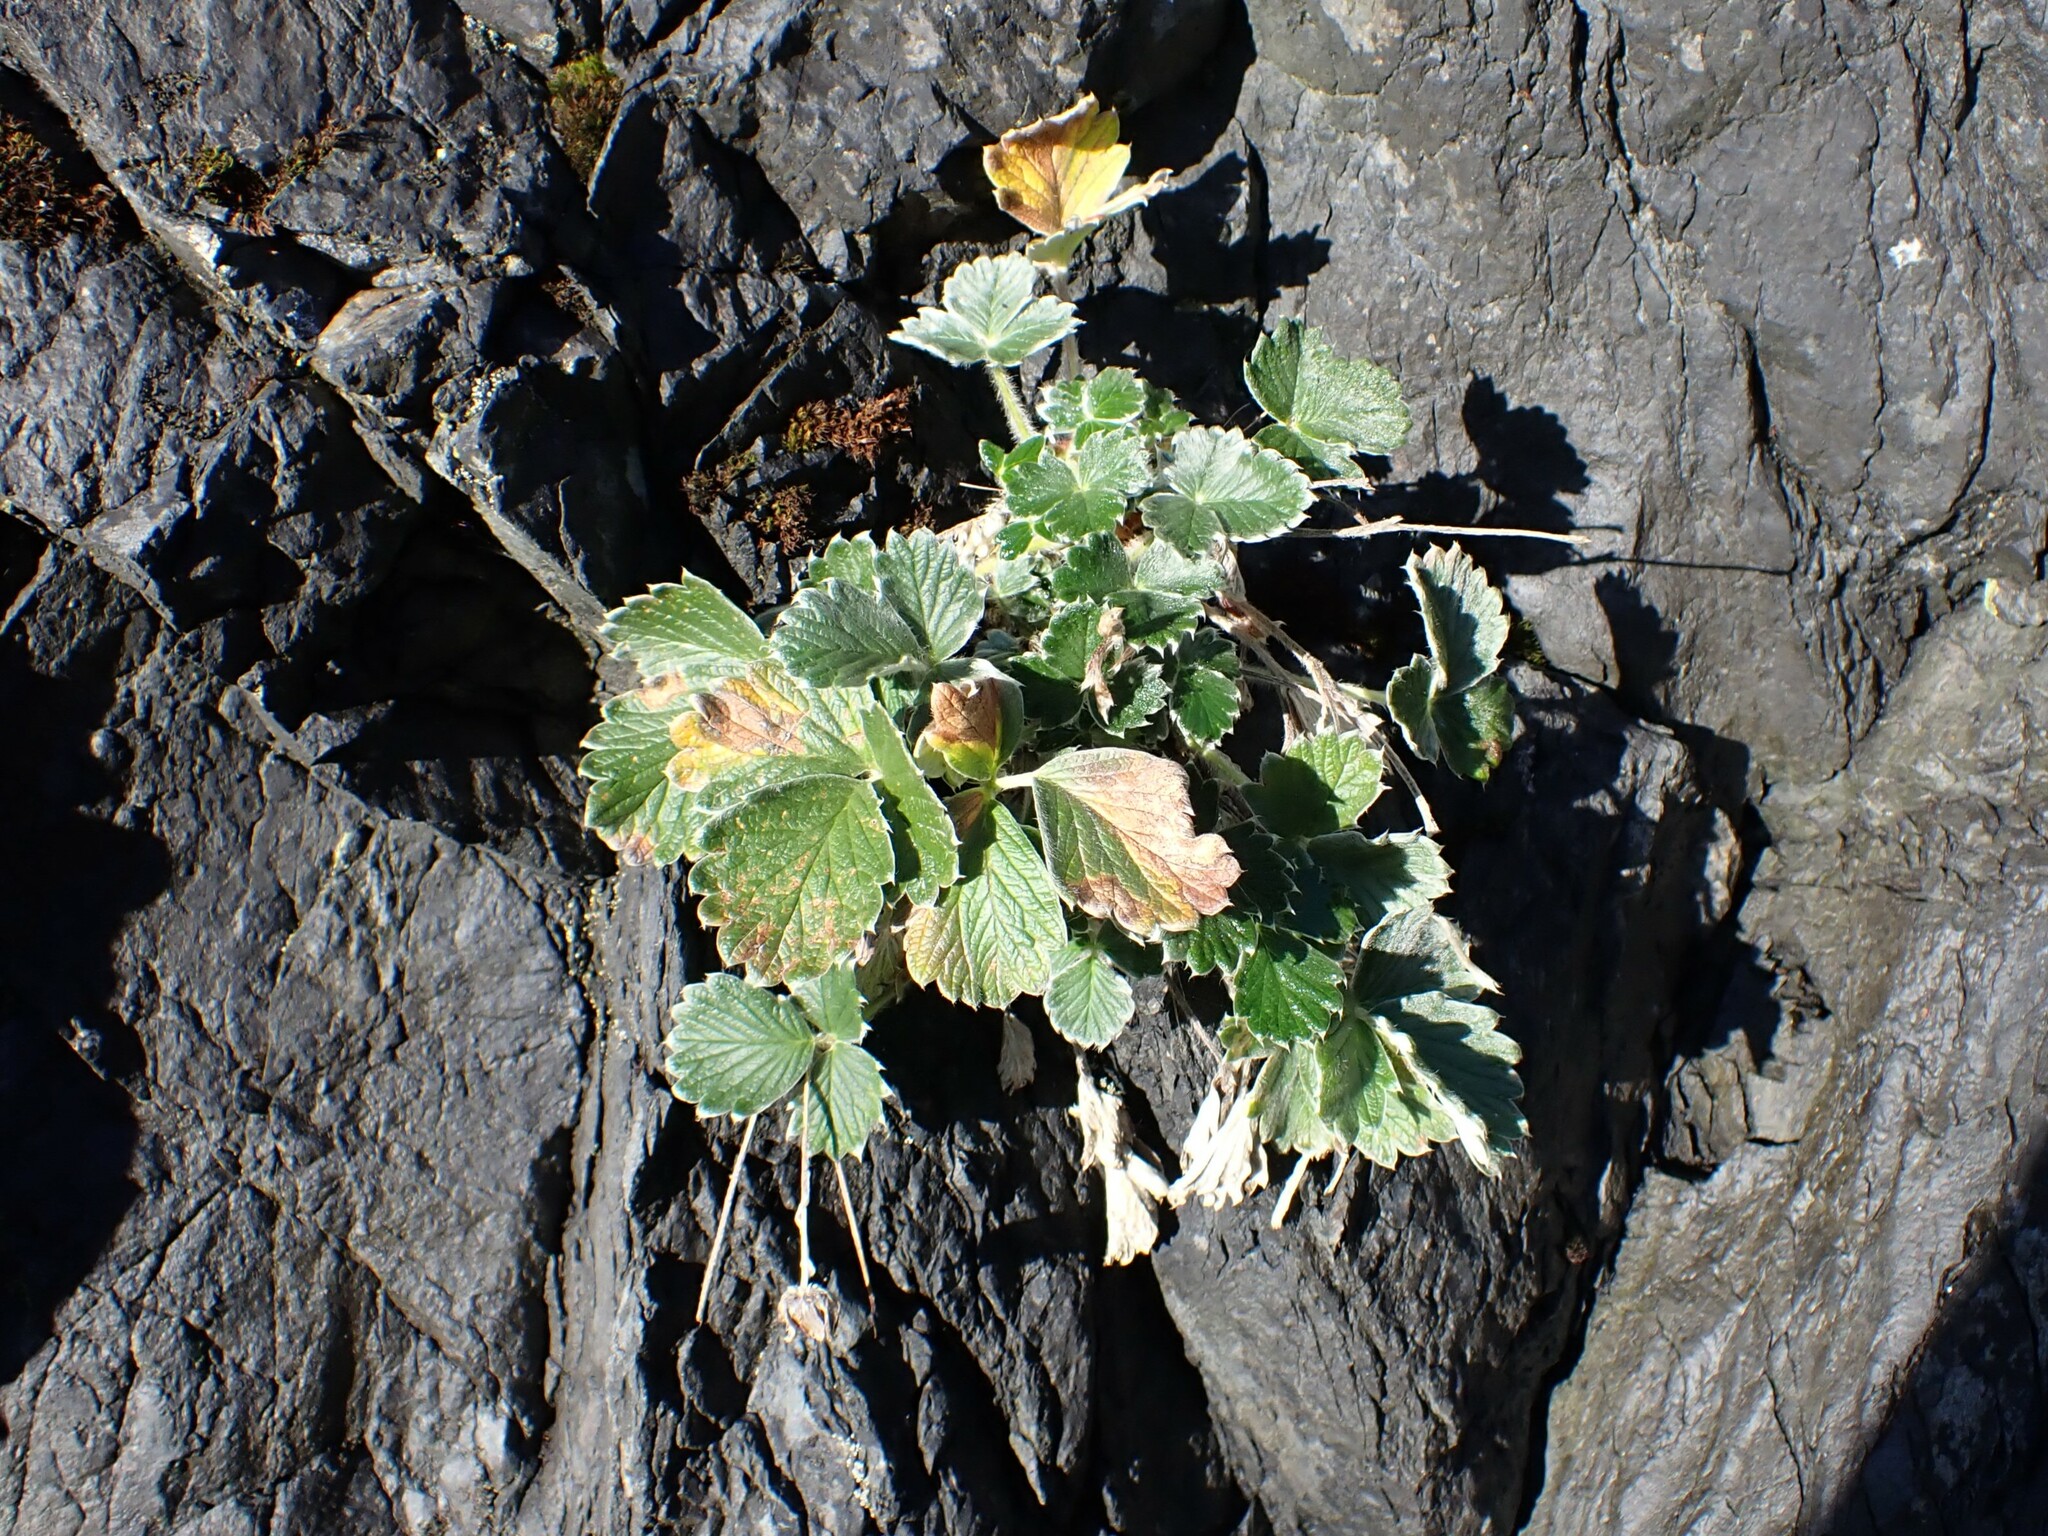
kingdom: Plantae
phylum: Tracheophyta
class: Magnoliopsida
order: Rosales
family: Rosaceae
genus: Potentilla
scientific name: Potentilla villosa
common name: Northern cinquefoil
